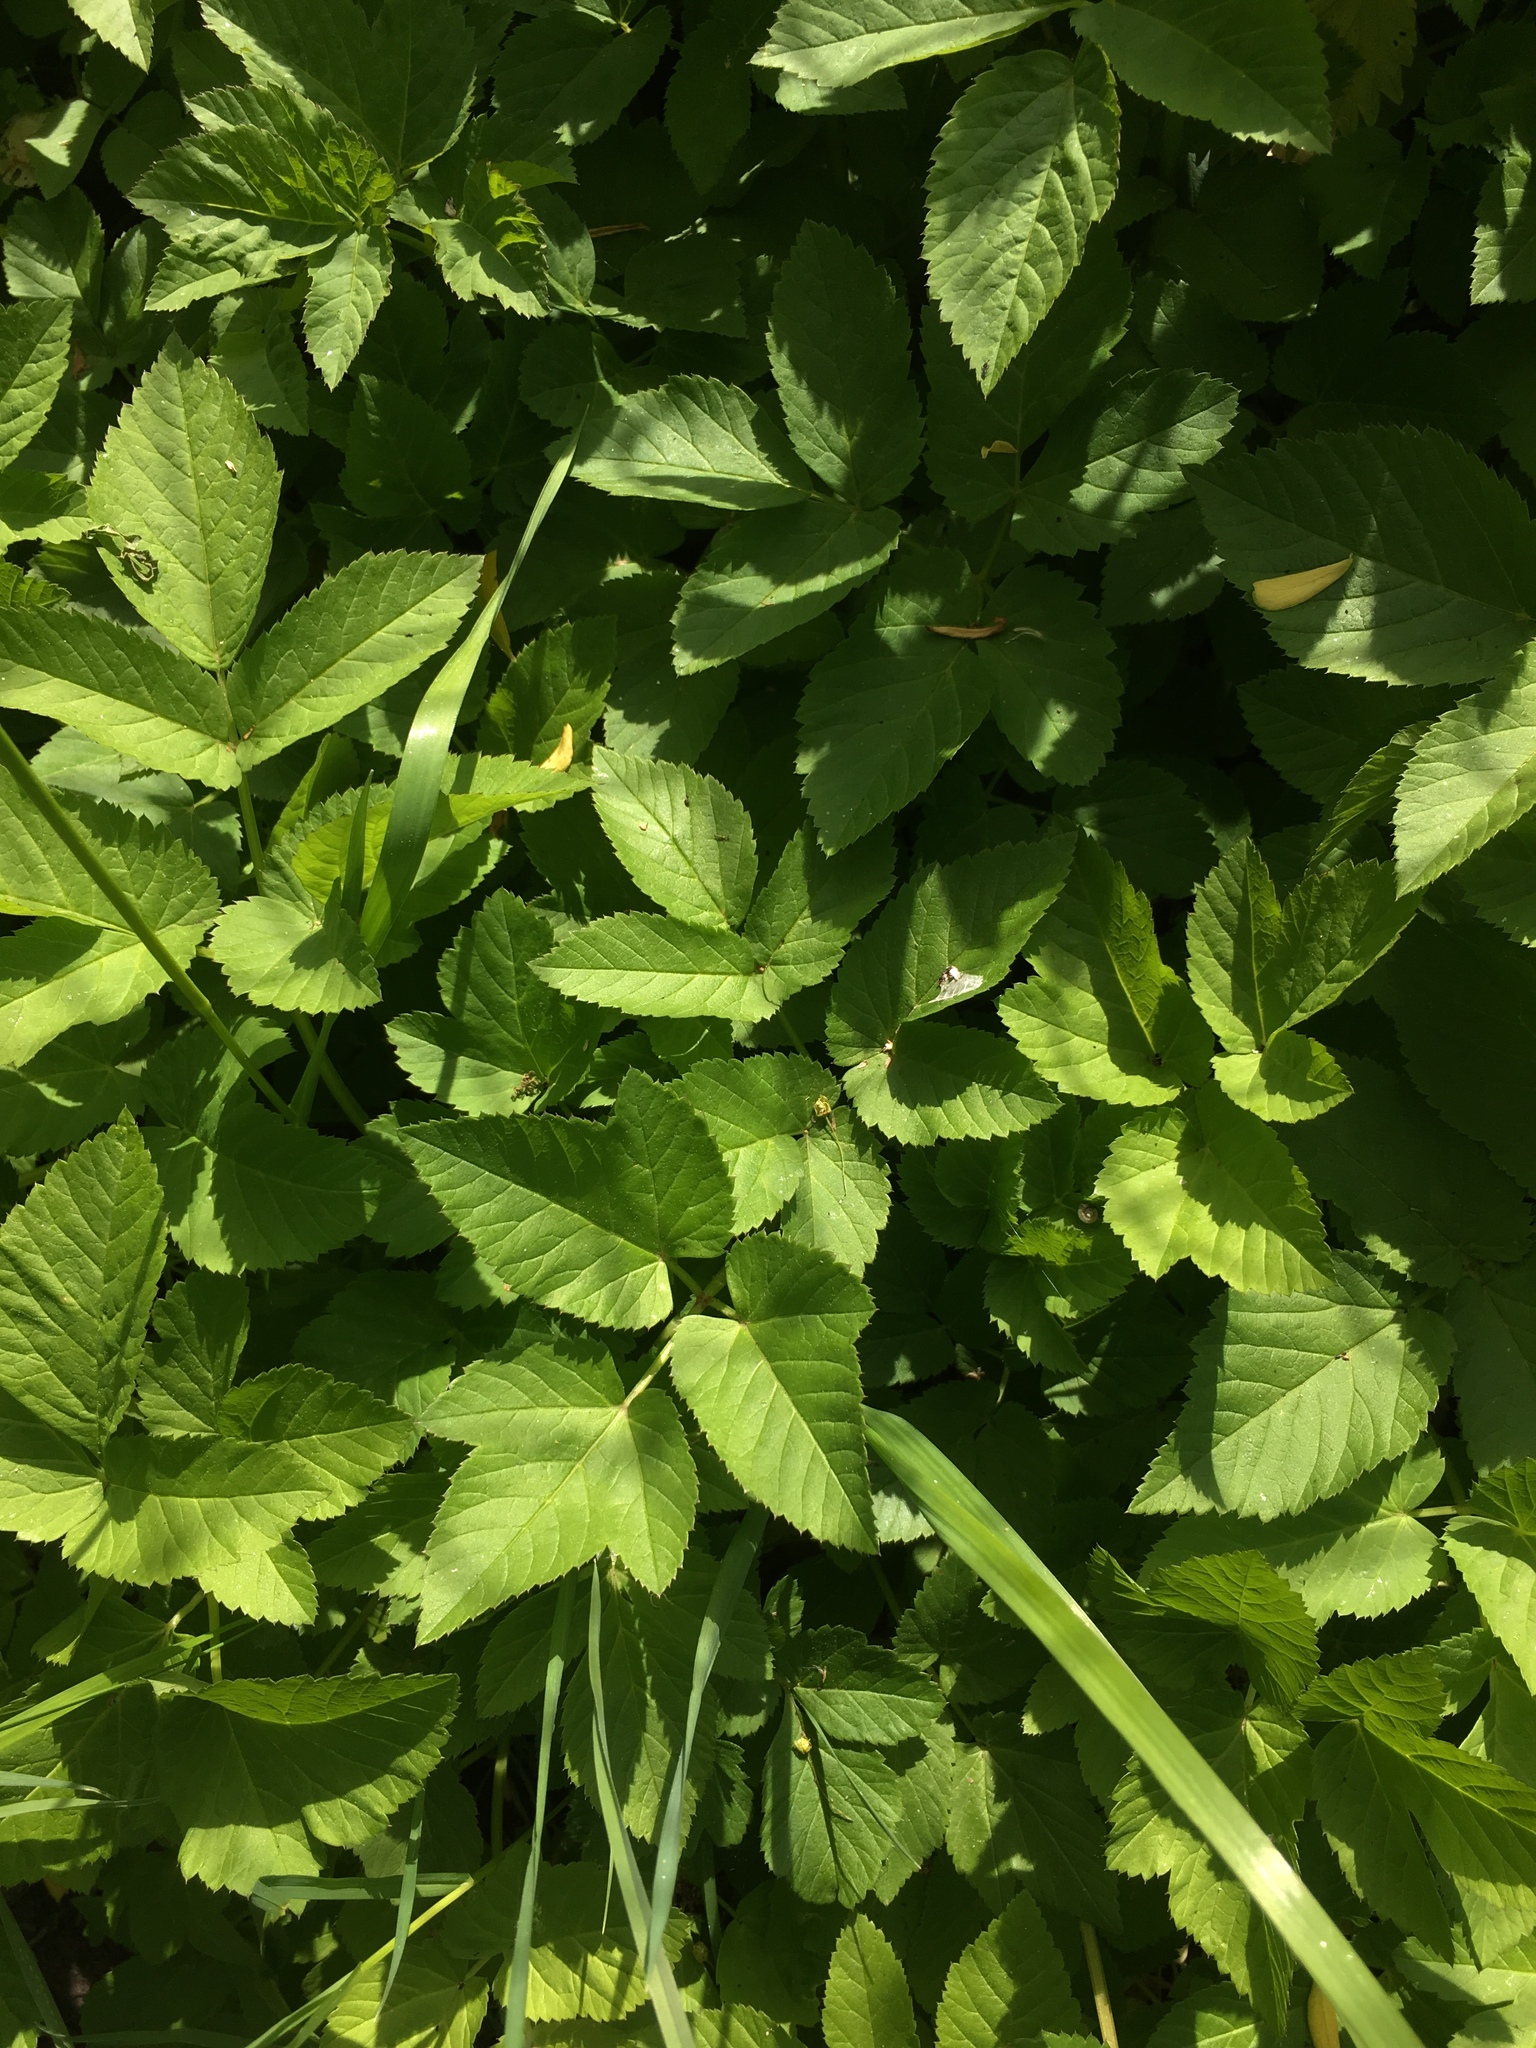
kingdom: Plantae
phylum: Tracheophyta
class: Magnoliopsida
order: Apiales
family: Apiaceae
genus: Aegopodium
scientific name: Aegopodium podagraria
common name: Ground-elder
